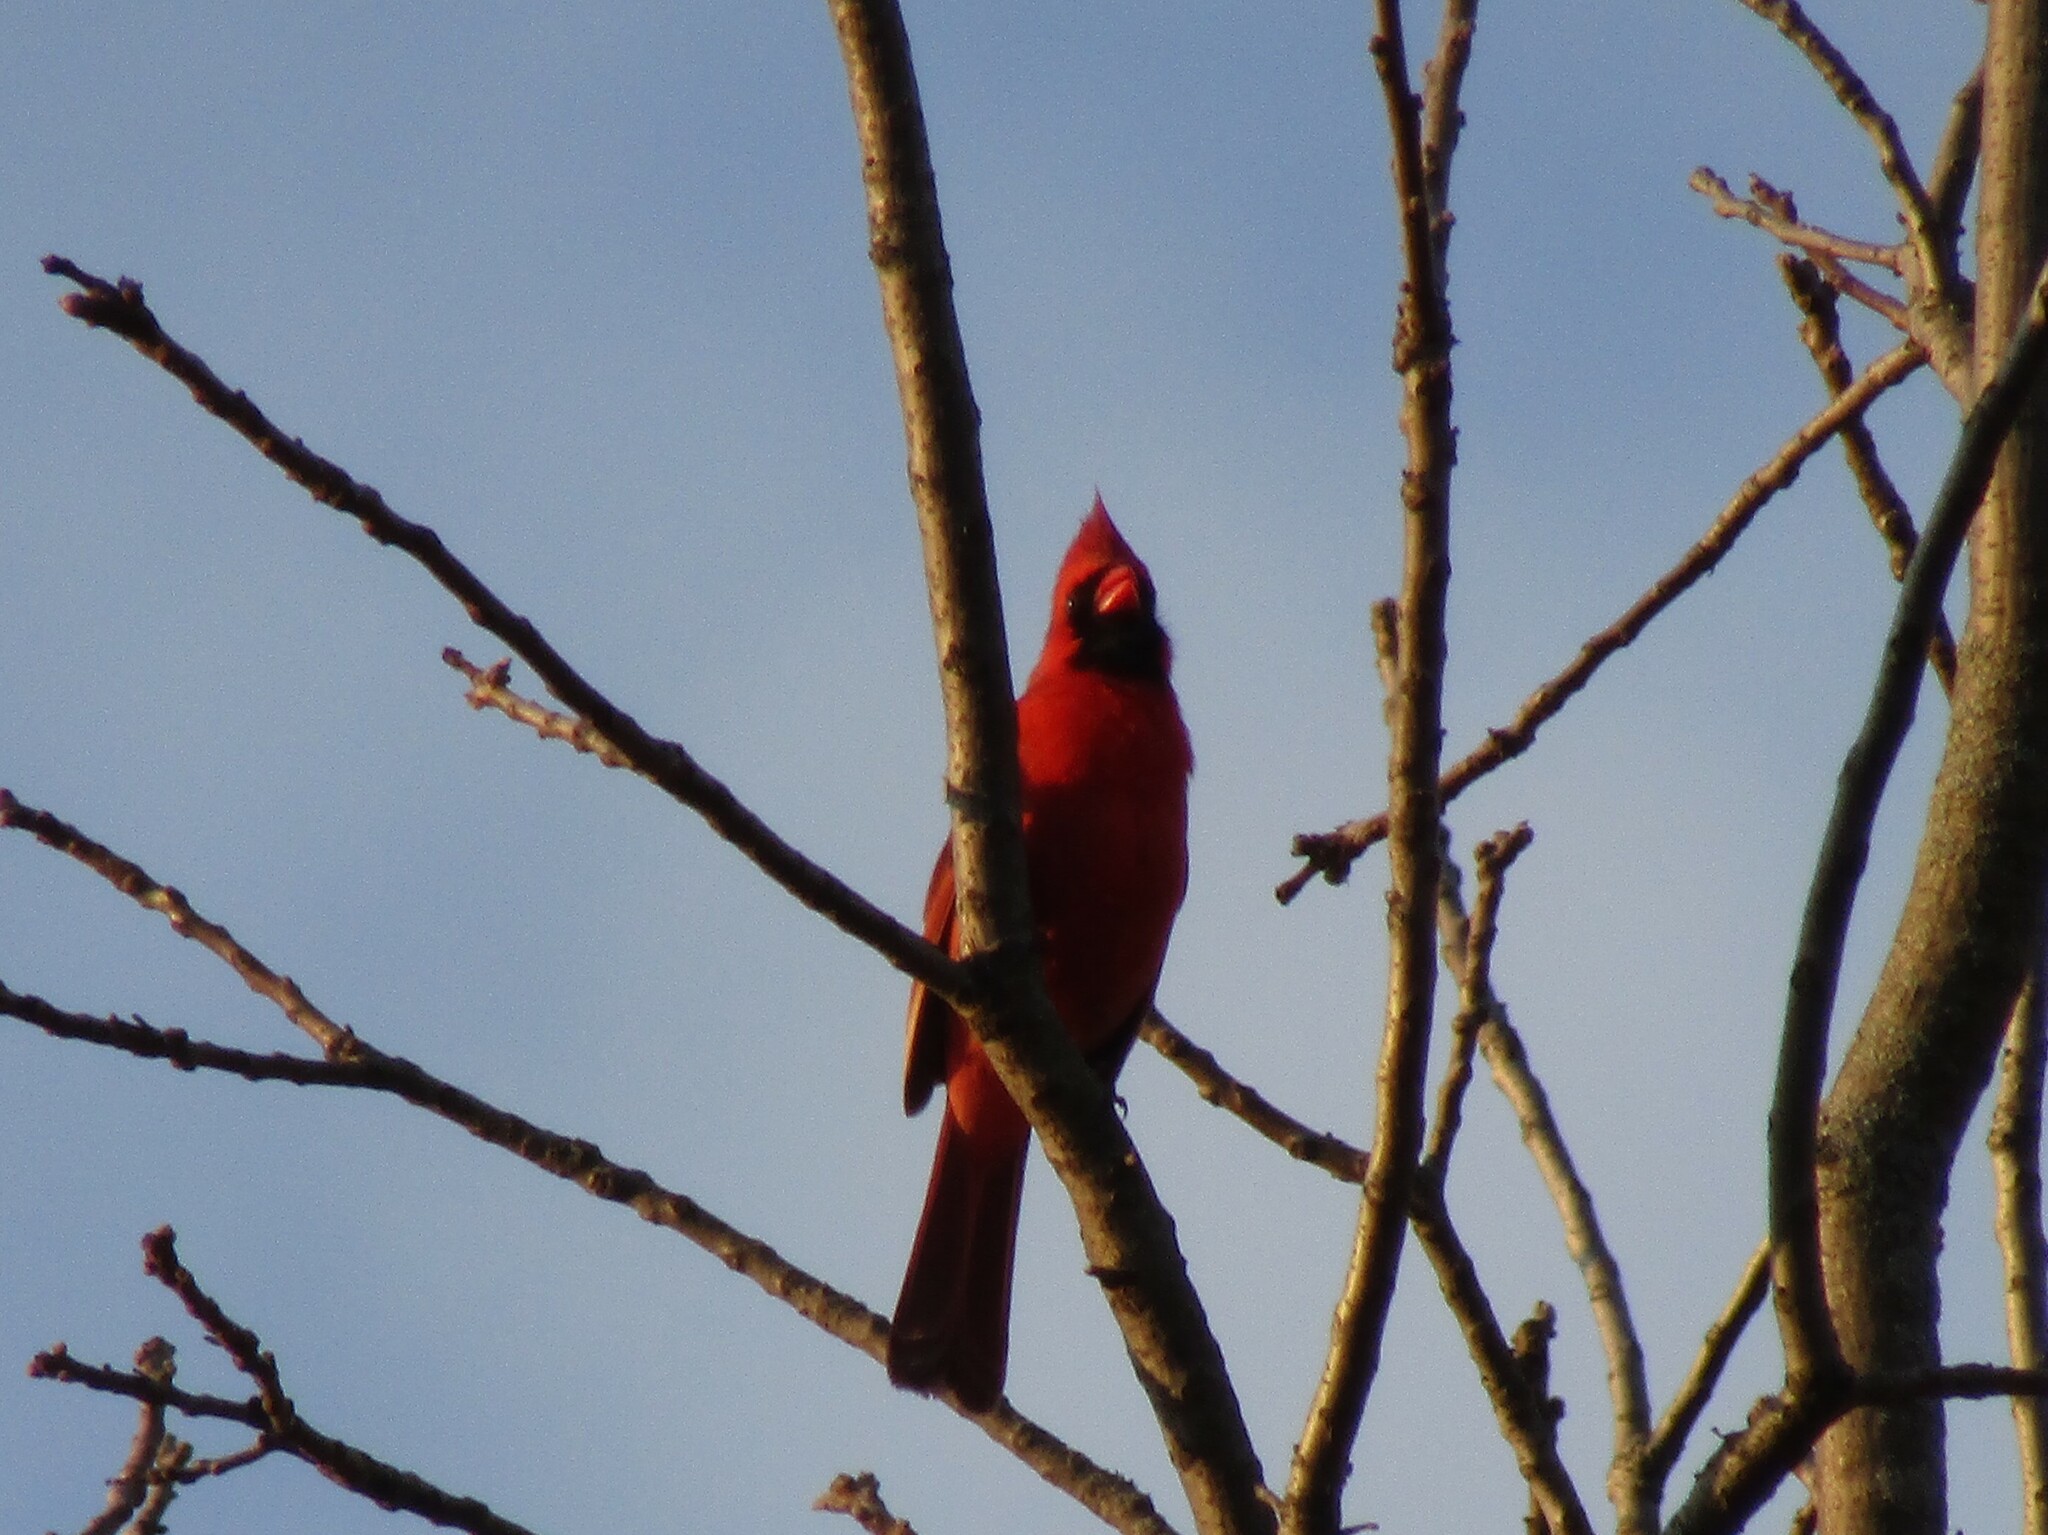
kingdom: Animalia
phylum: Chordata
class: Aves
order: Passeriformes
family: Cardinalidae
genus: Cardinalis
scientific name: Cardinalis cardinalis
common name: Northern cardinal
